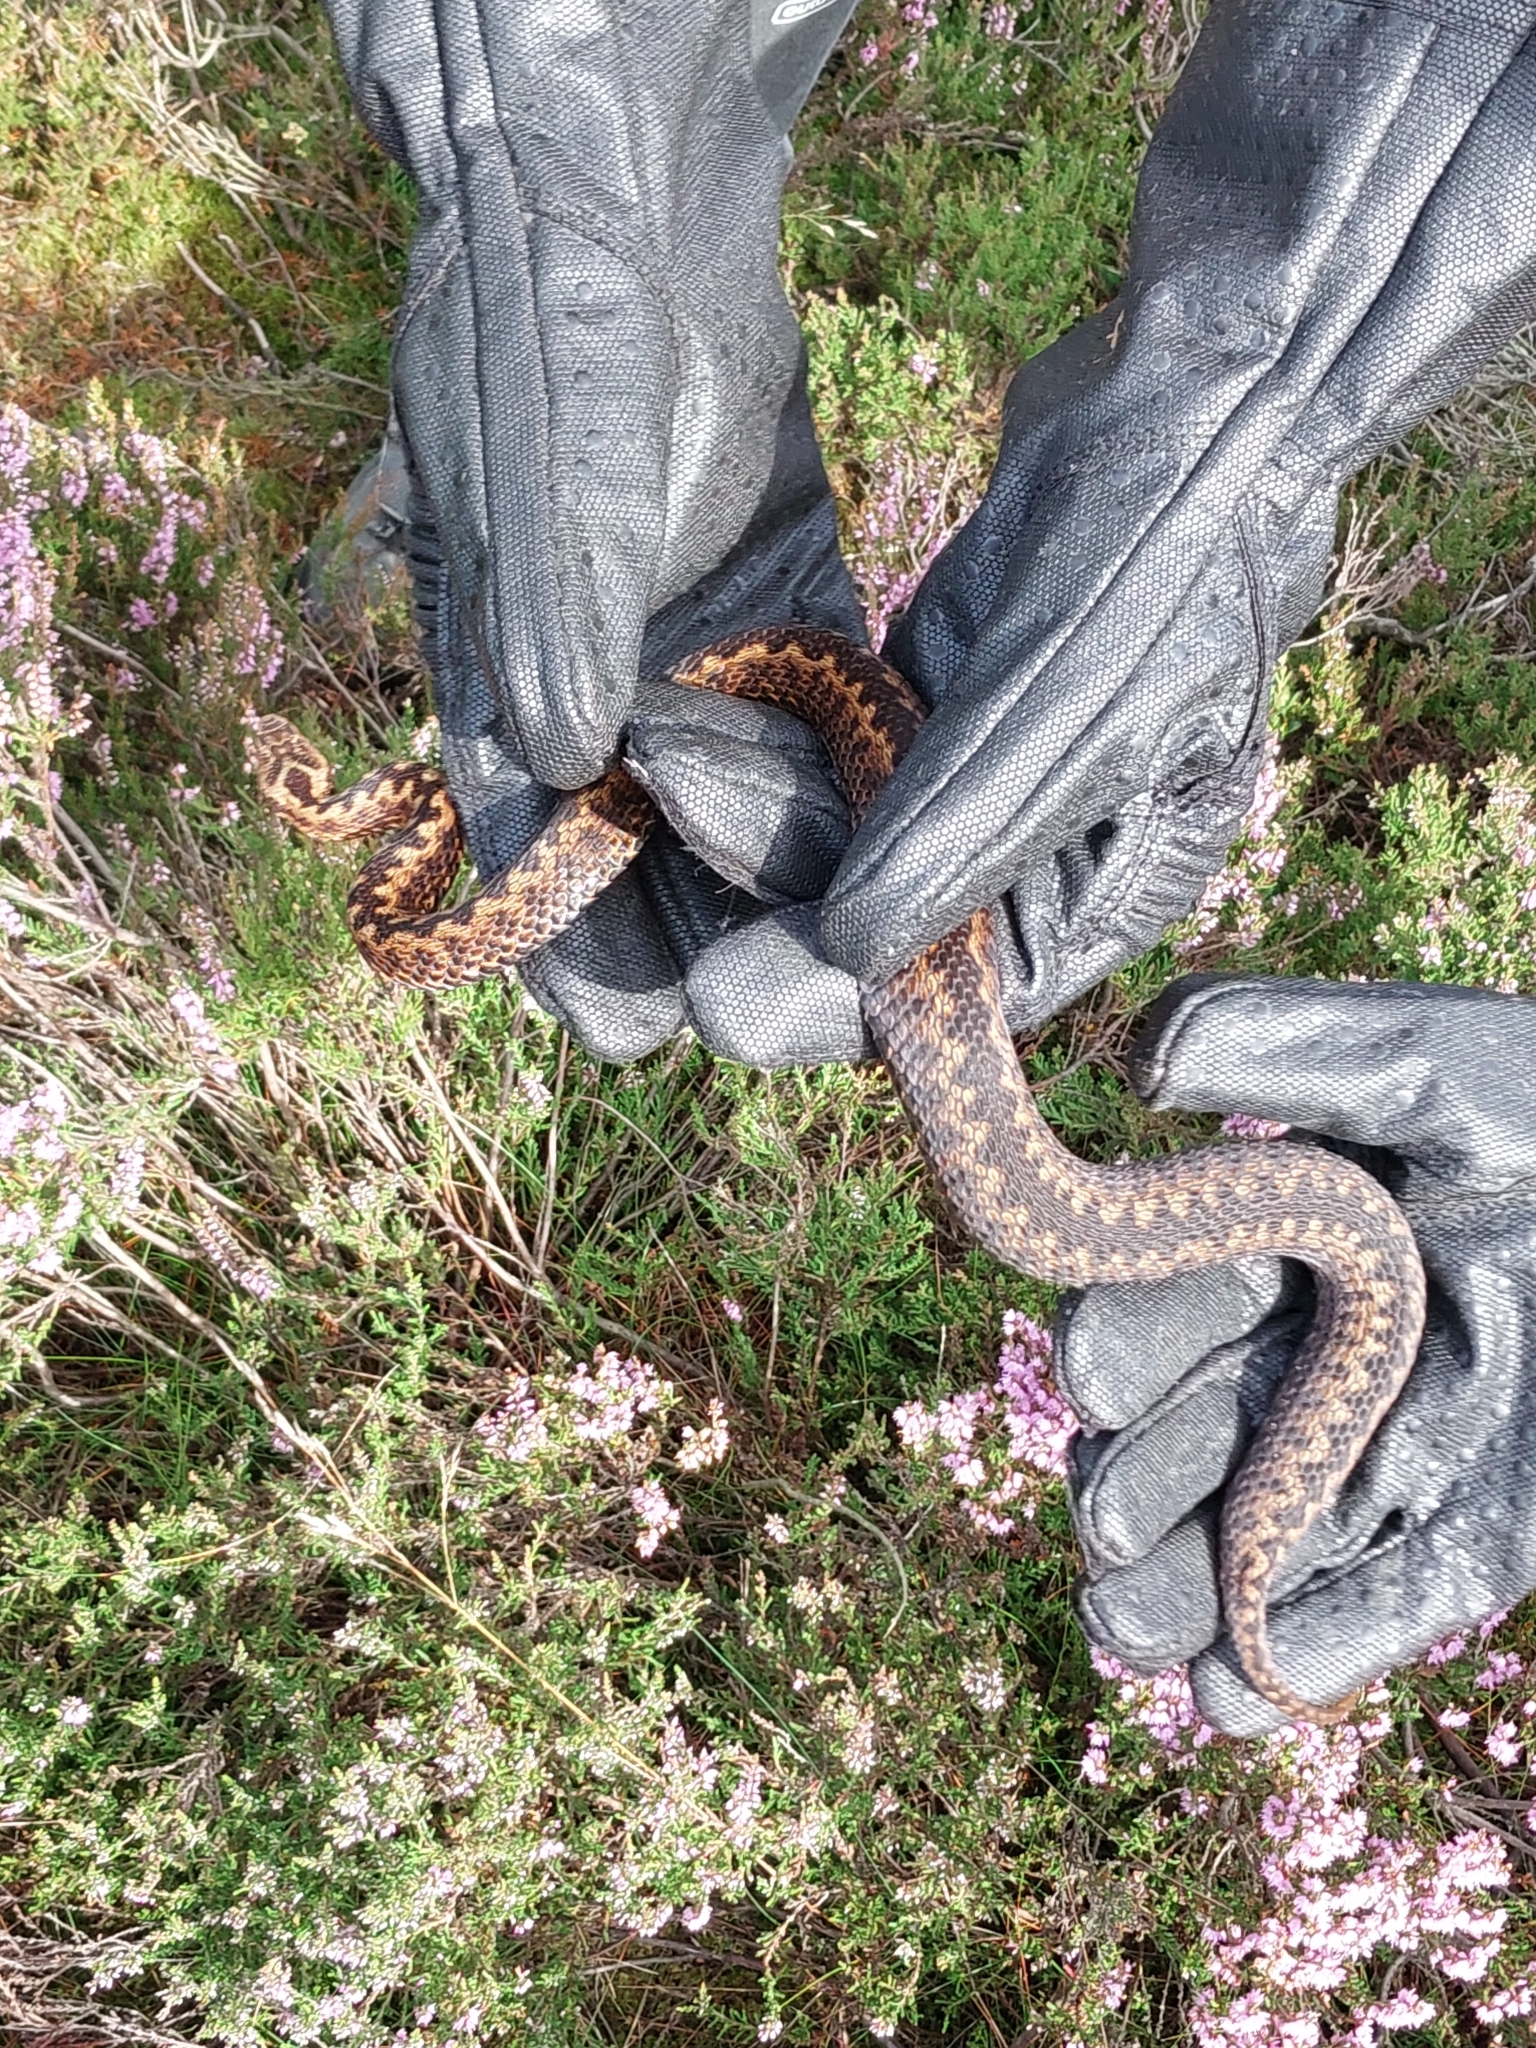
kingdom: Animalia
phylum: Chordata
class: Squamata
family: Viperidae
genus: Vipera
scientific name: Vipera berus
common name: Adder
